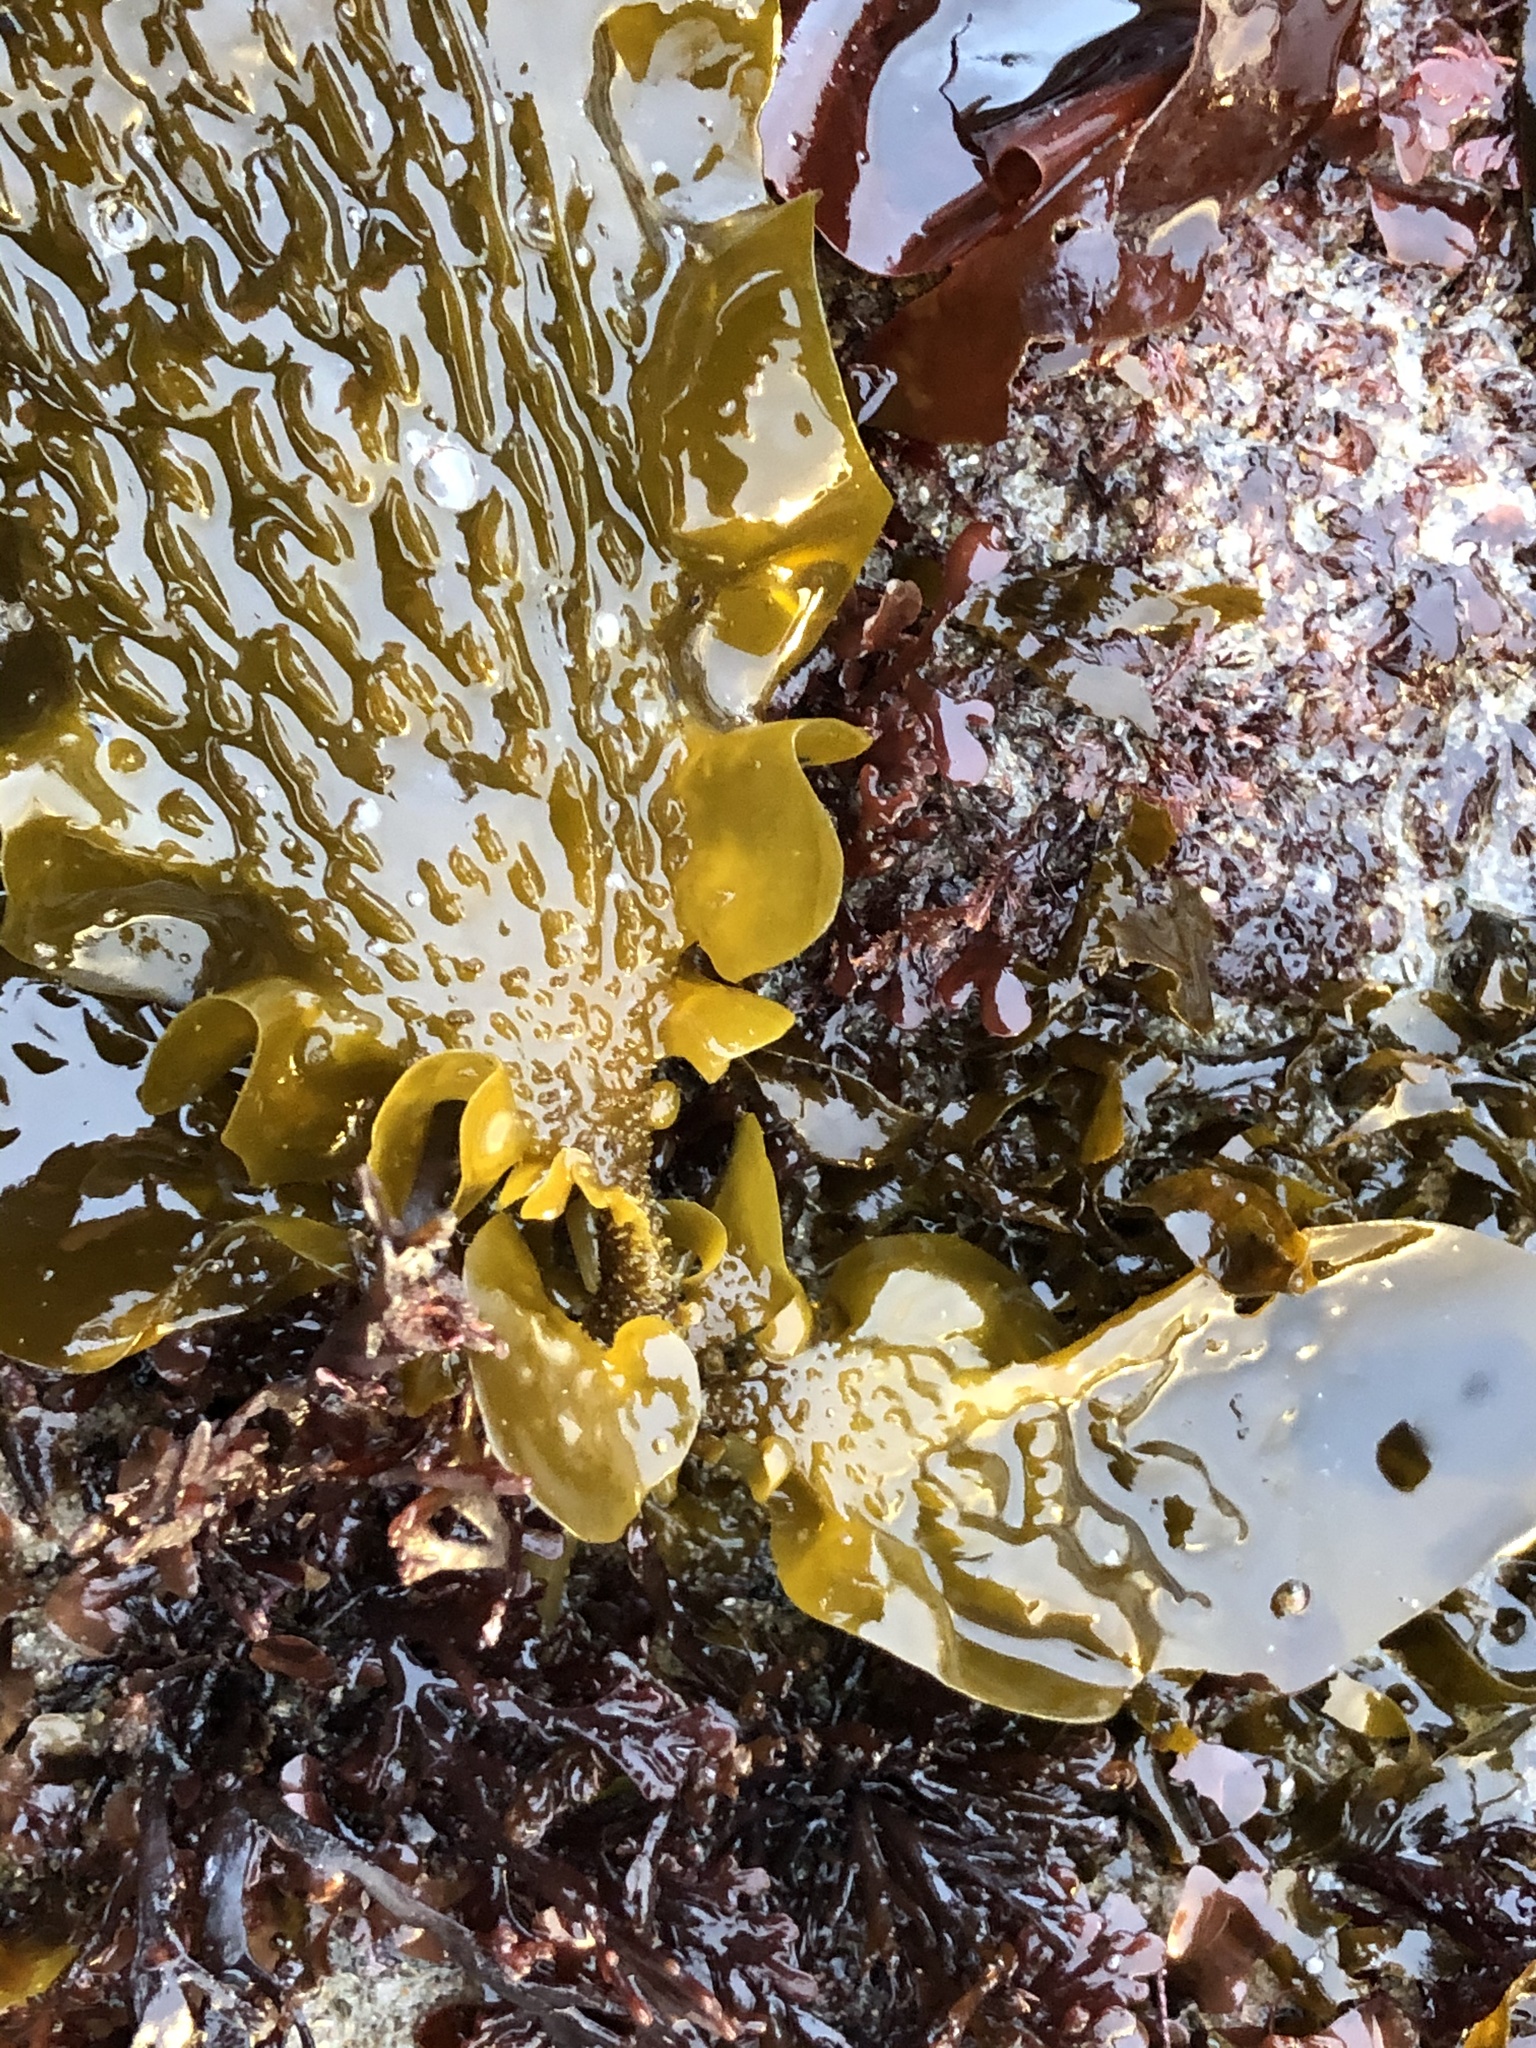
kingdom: Chromista
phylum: Ochrophyta
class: Phaeophyceae
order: Laminariales
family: Lessoniaceae
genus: Egregia
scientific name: Egregia menziesii
